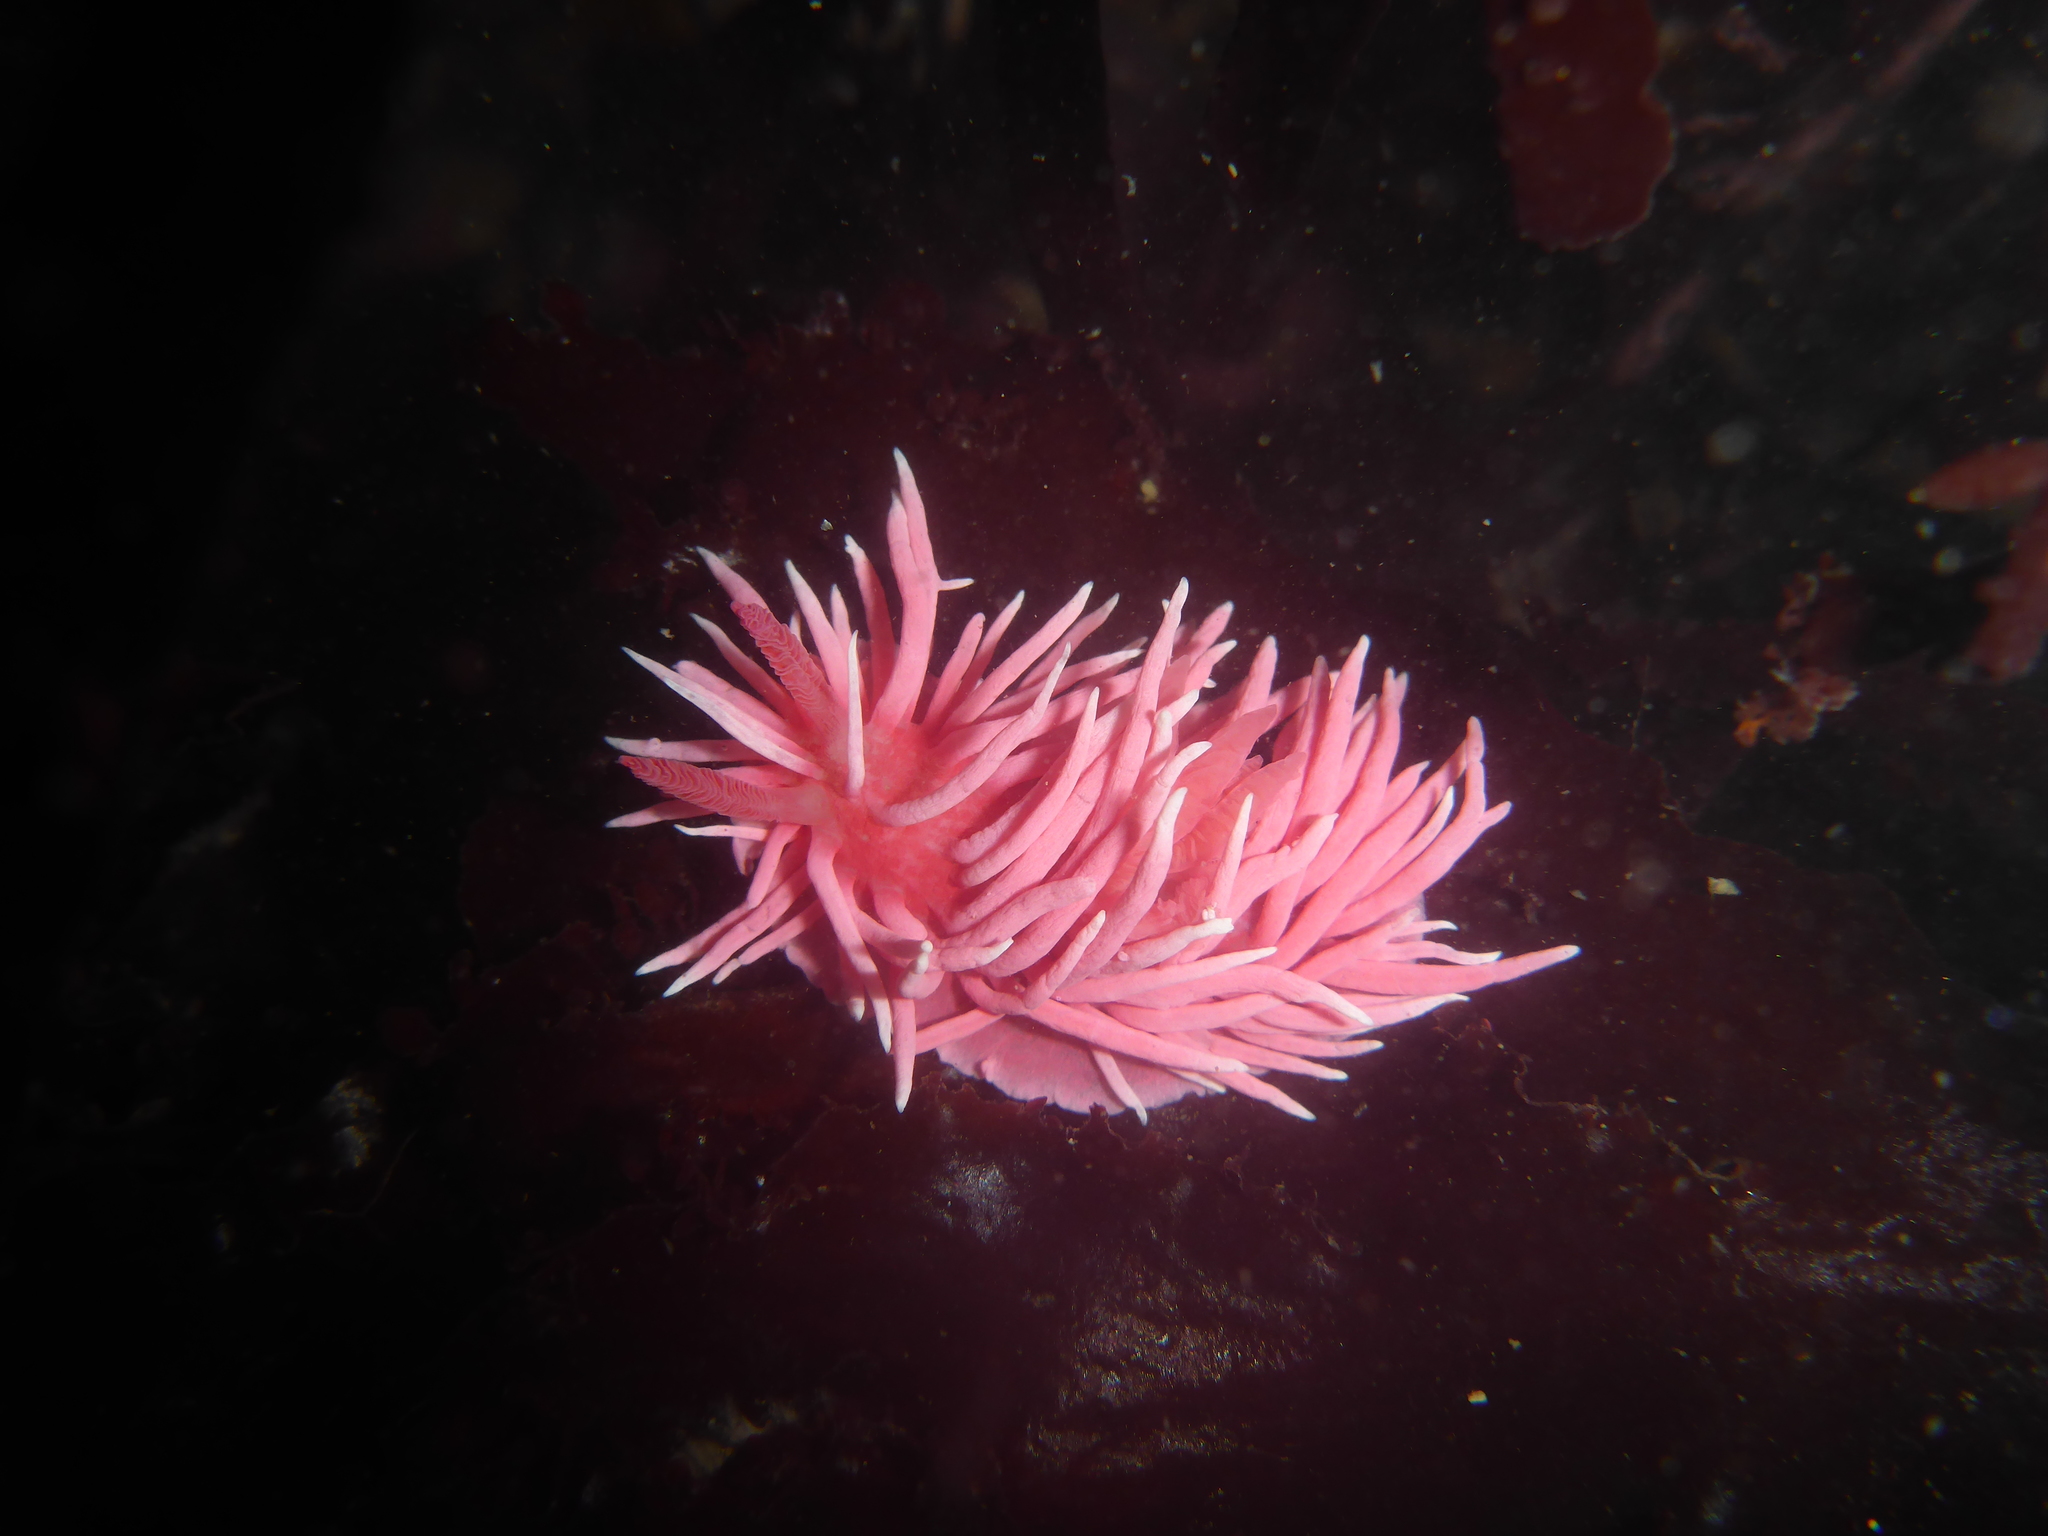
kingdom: Animalia
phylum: Mollusca
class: Gastropoda
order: Nudibranchia
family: Goniodorididae
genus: Okenia
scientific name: Okenia
